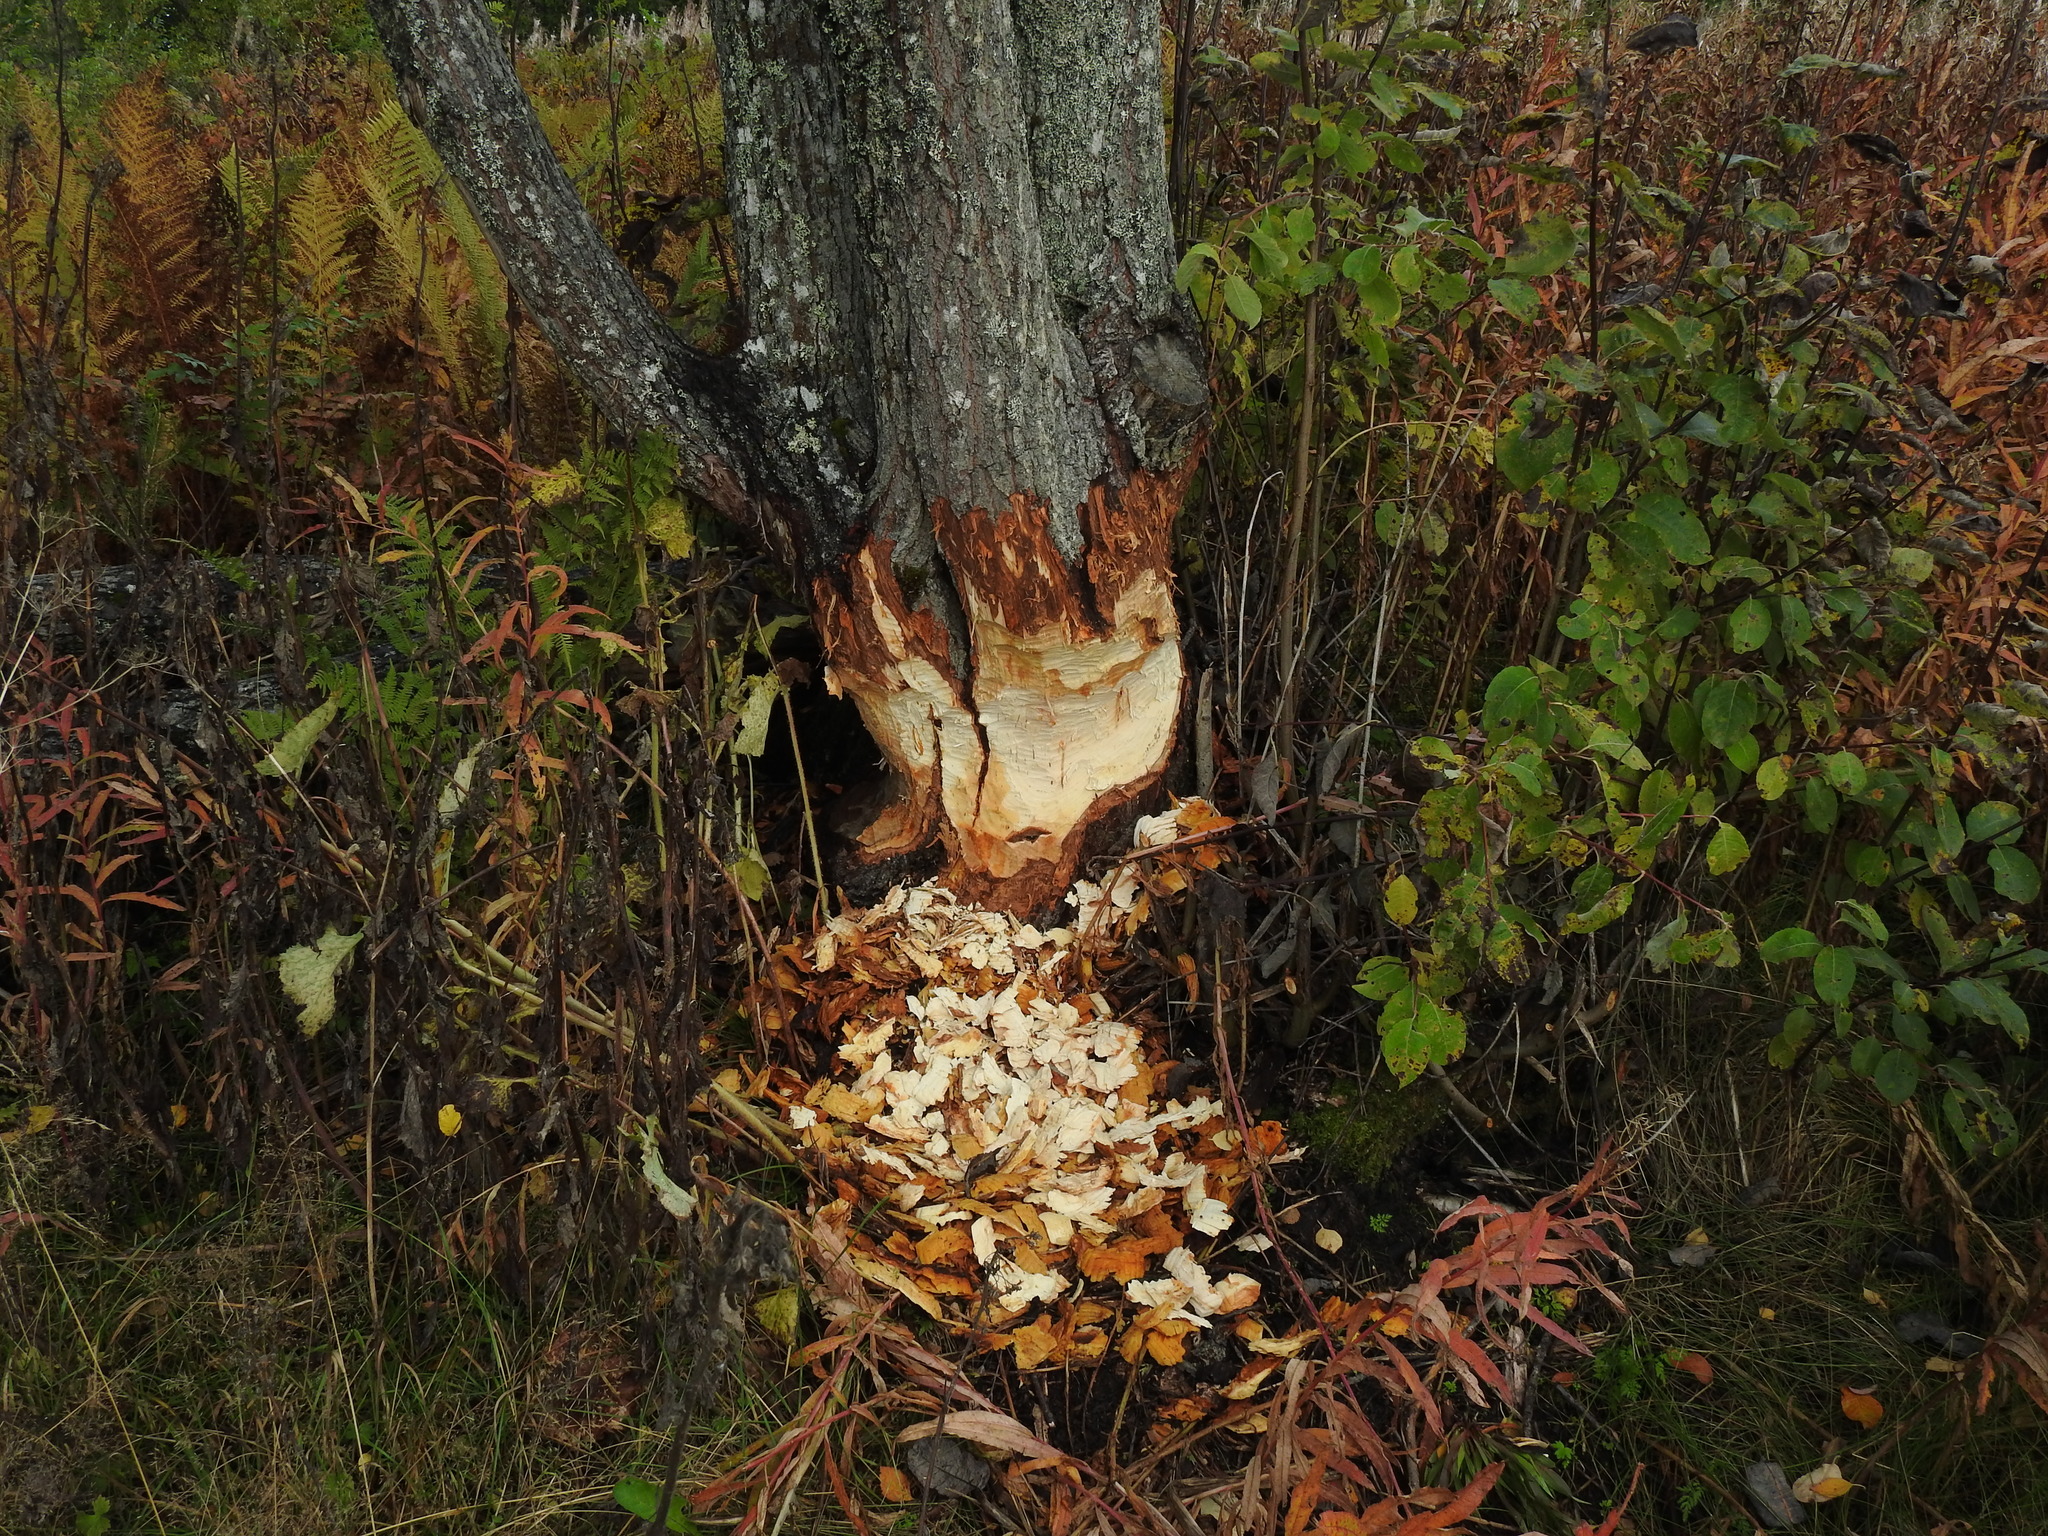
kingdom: Animalia
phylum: Chordata
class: Mammalia
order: Rodentia
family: Castoridae
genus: Castor
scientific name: Castor fiber
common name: Eurasian beaver
